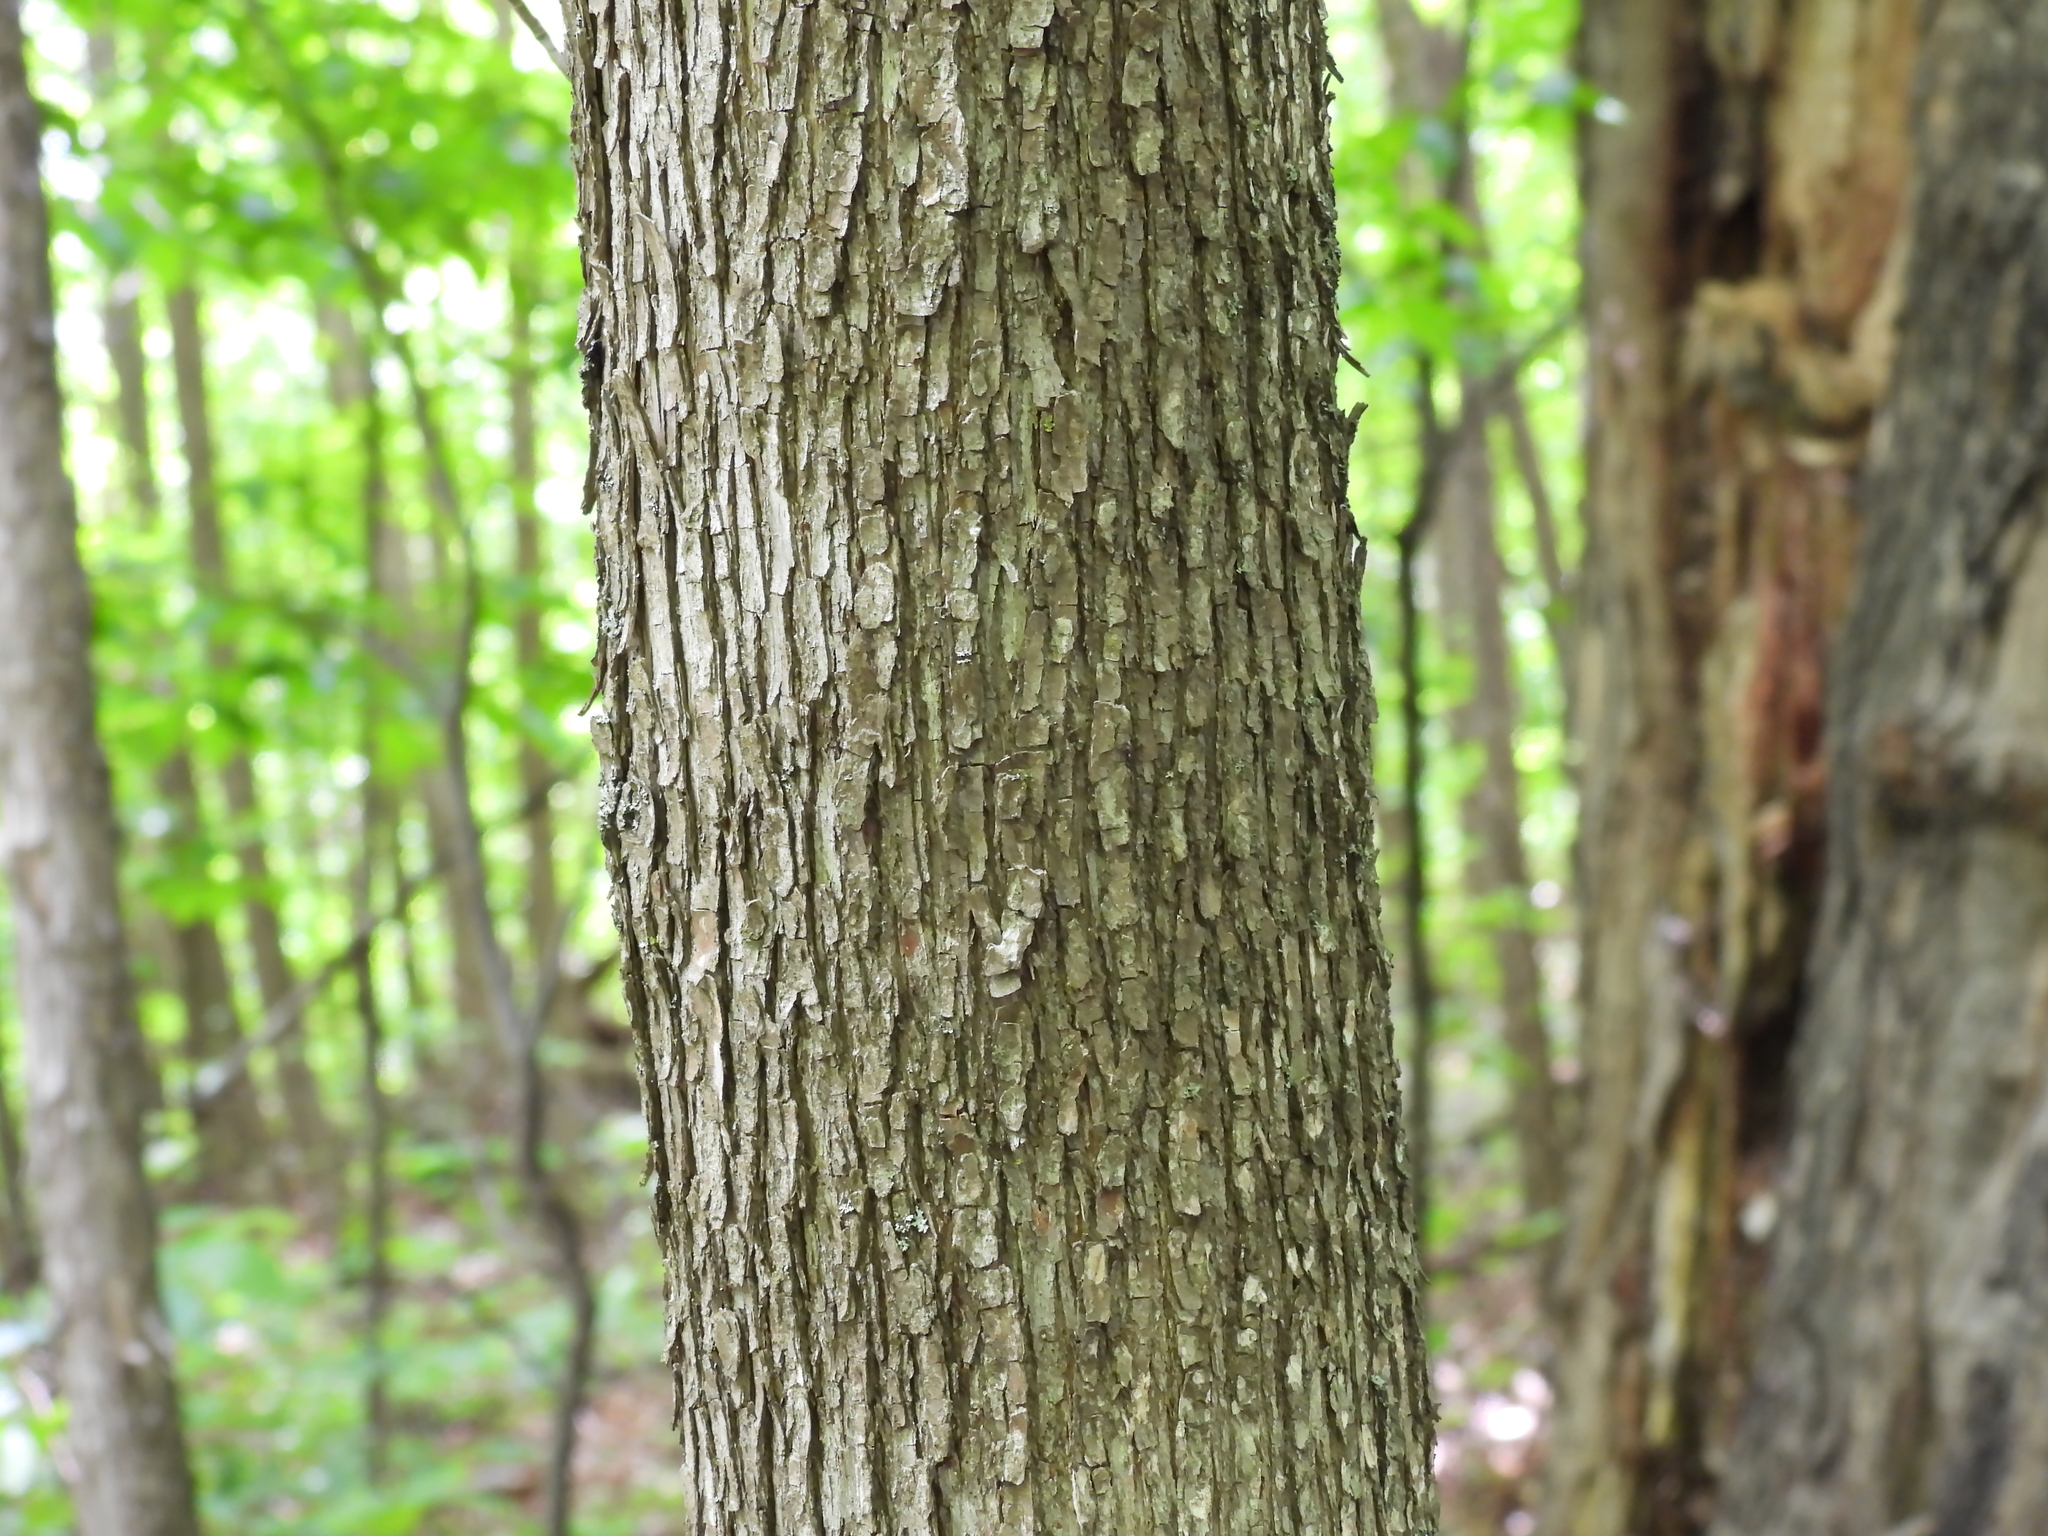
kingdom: Plantae
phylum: Tracheophyta
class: Magnoliopsida
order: Fagales
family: Betulaceae
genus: Ostrya
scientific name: Ostrya virginiana
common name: Ironwood
